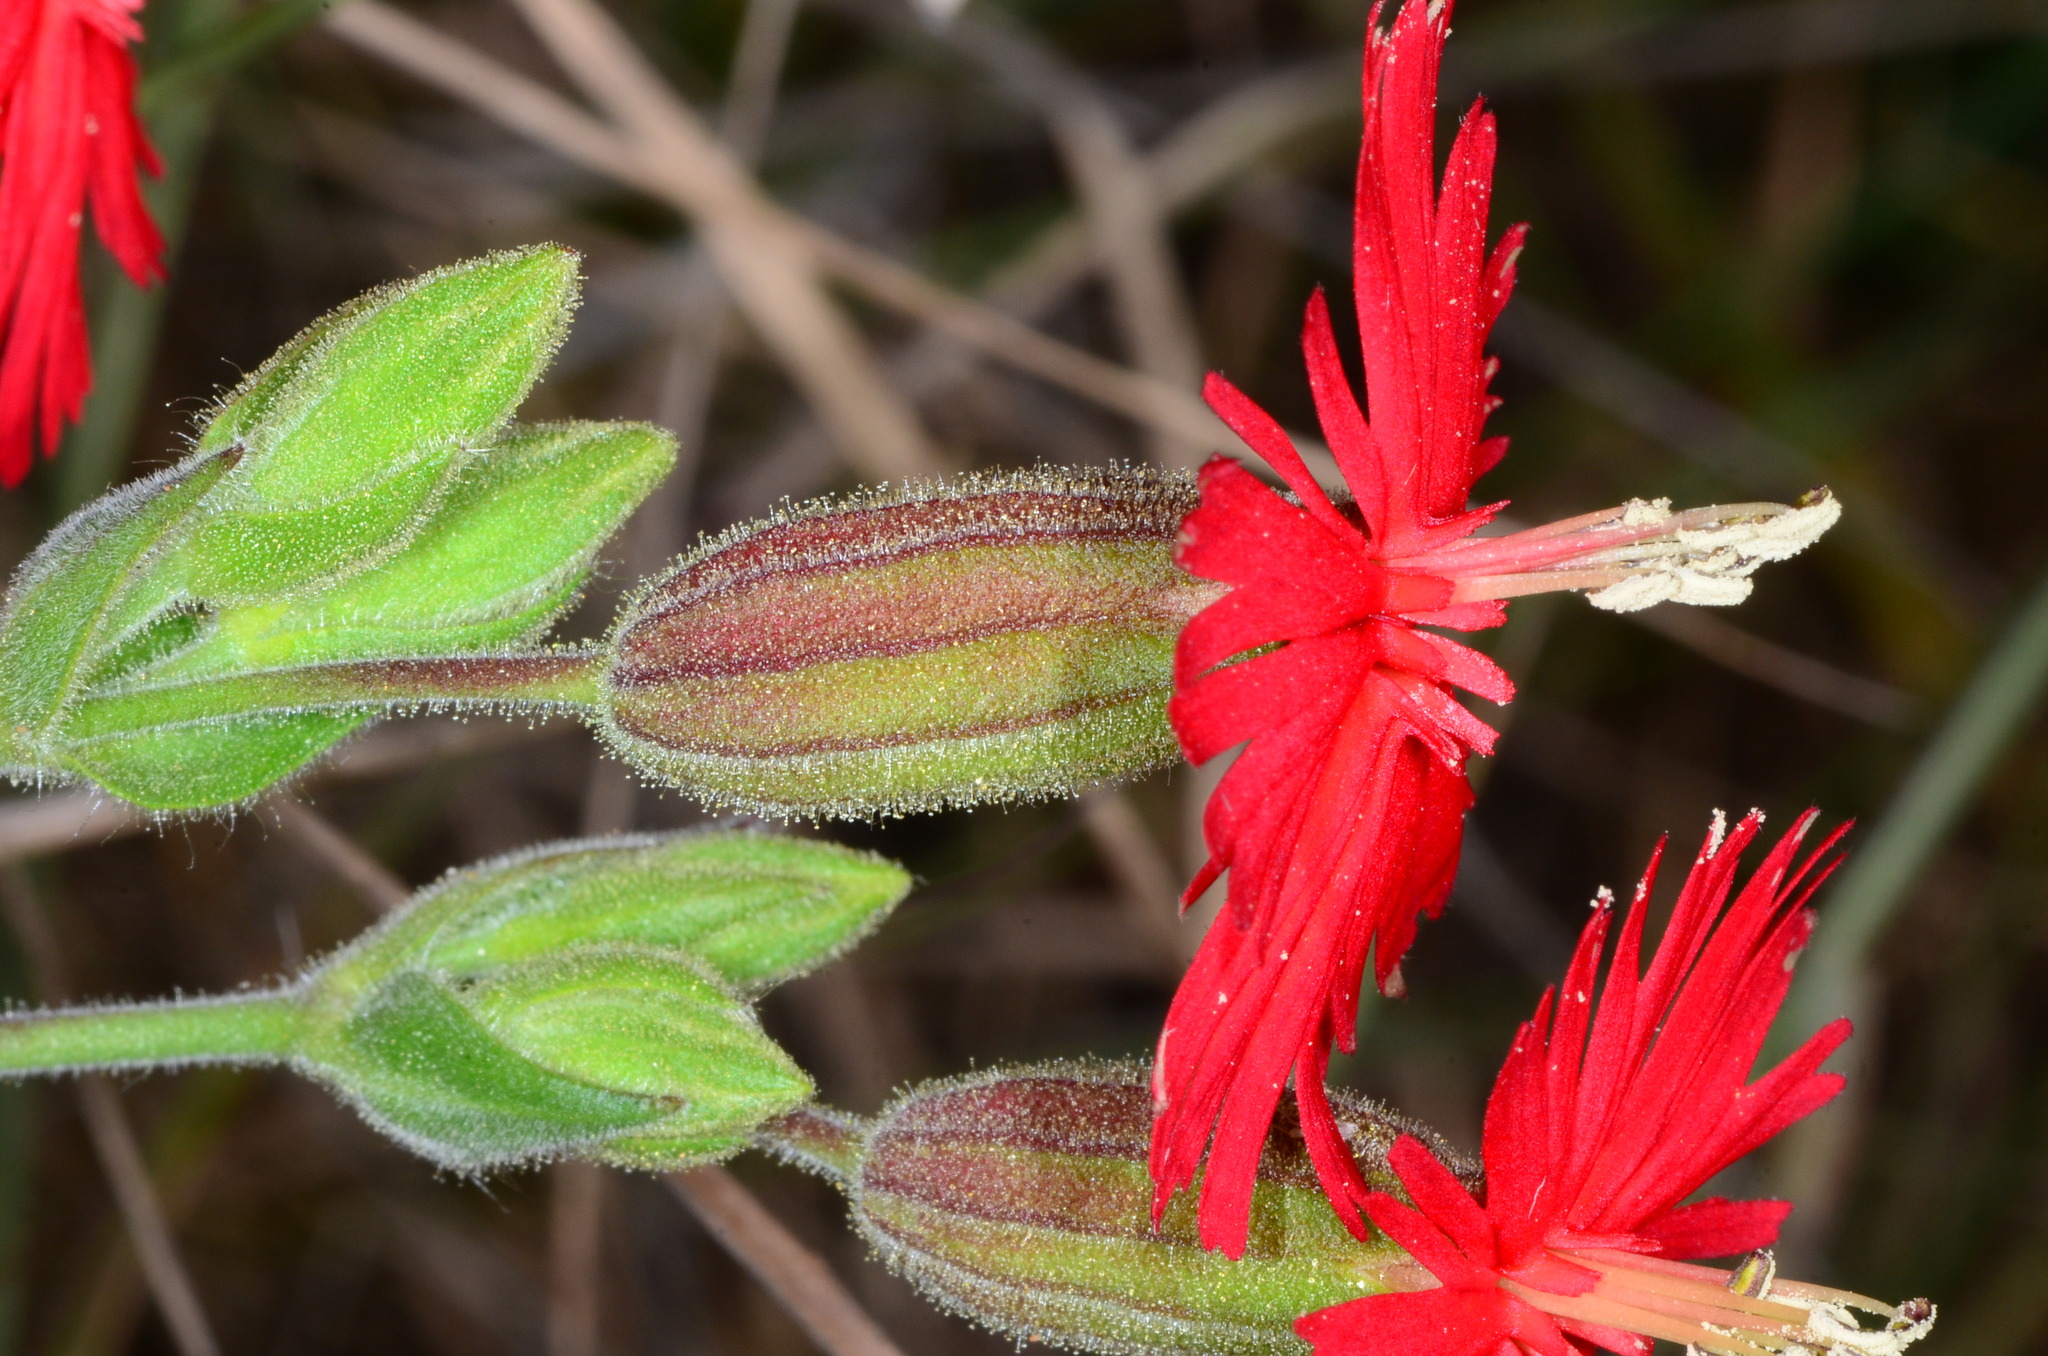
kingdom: Plantae
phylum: Tracheophyta
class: Magnoliopsida
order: Caryophyllales
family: Caryophyllaceae
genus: Silene
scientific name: Silene laciniata
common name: Indian-pink
